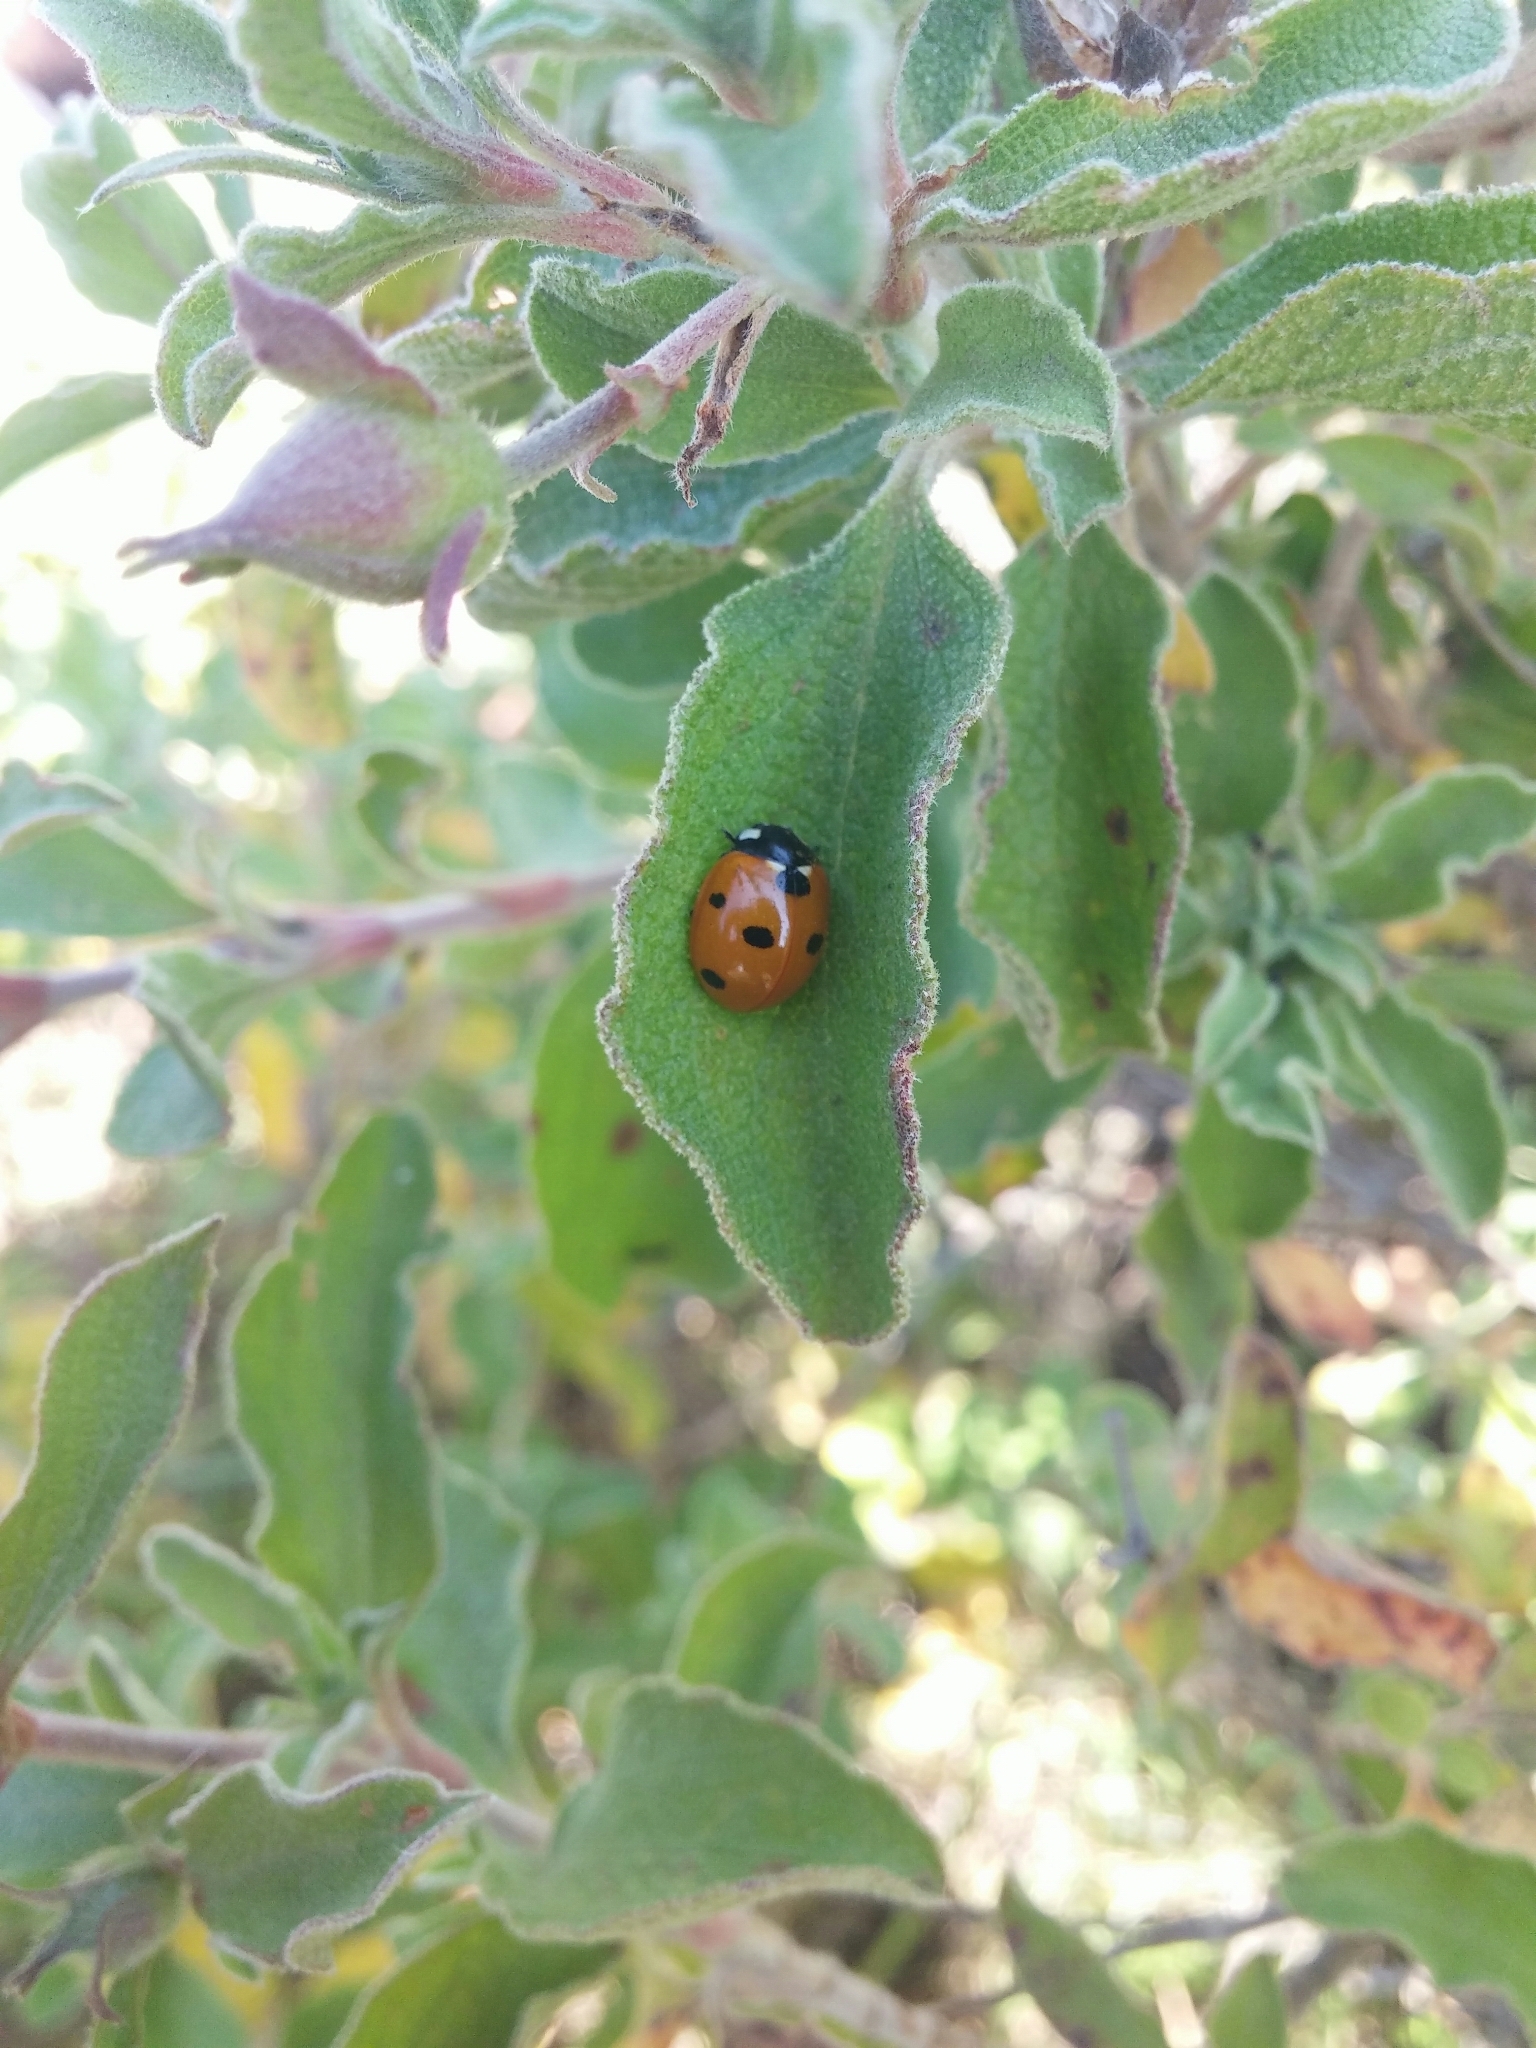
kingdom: Animalia
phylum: Arthropoda
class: Insecta
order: Coleoptera
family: Coccinellidae
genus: Coccinella
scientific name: Coccinella septempunctata
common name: Sevenspotted lady beetle
